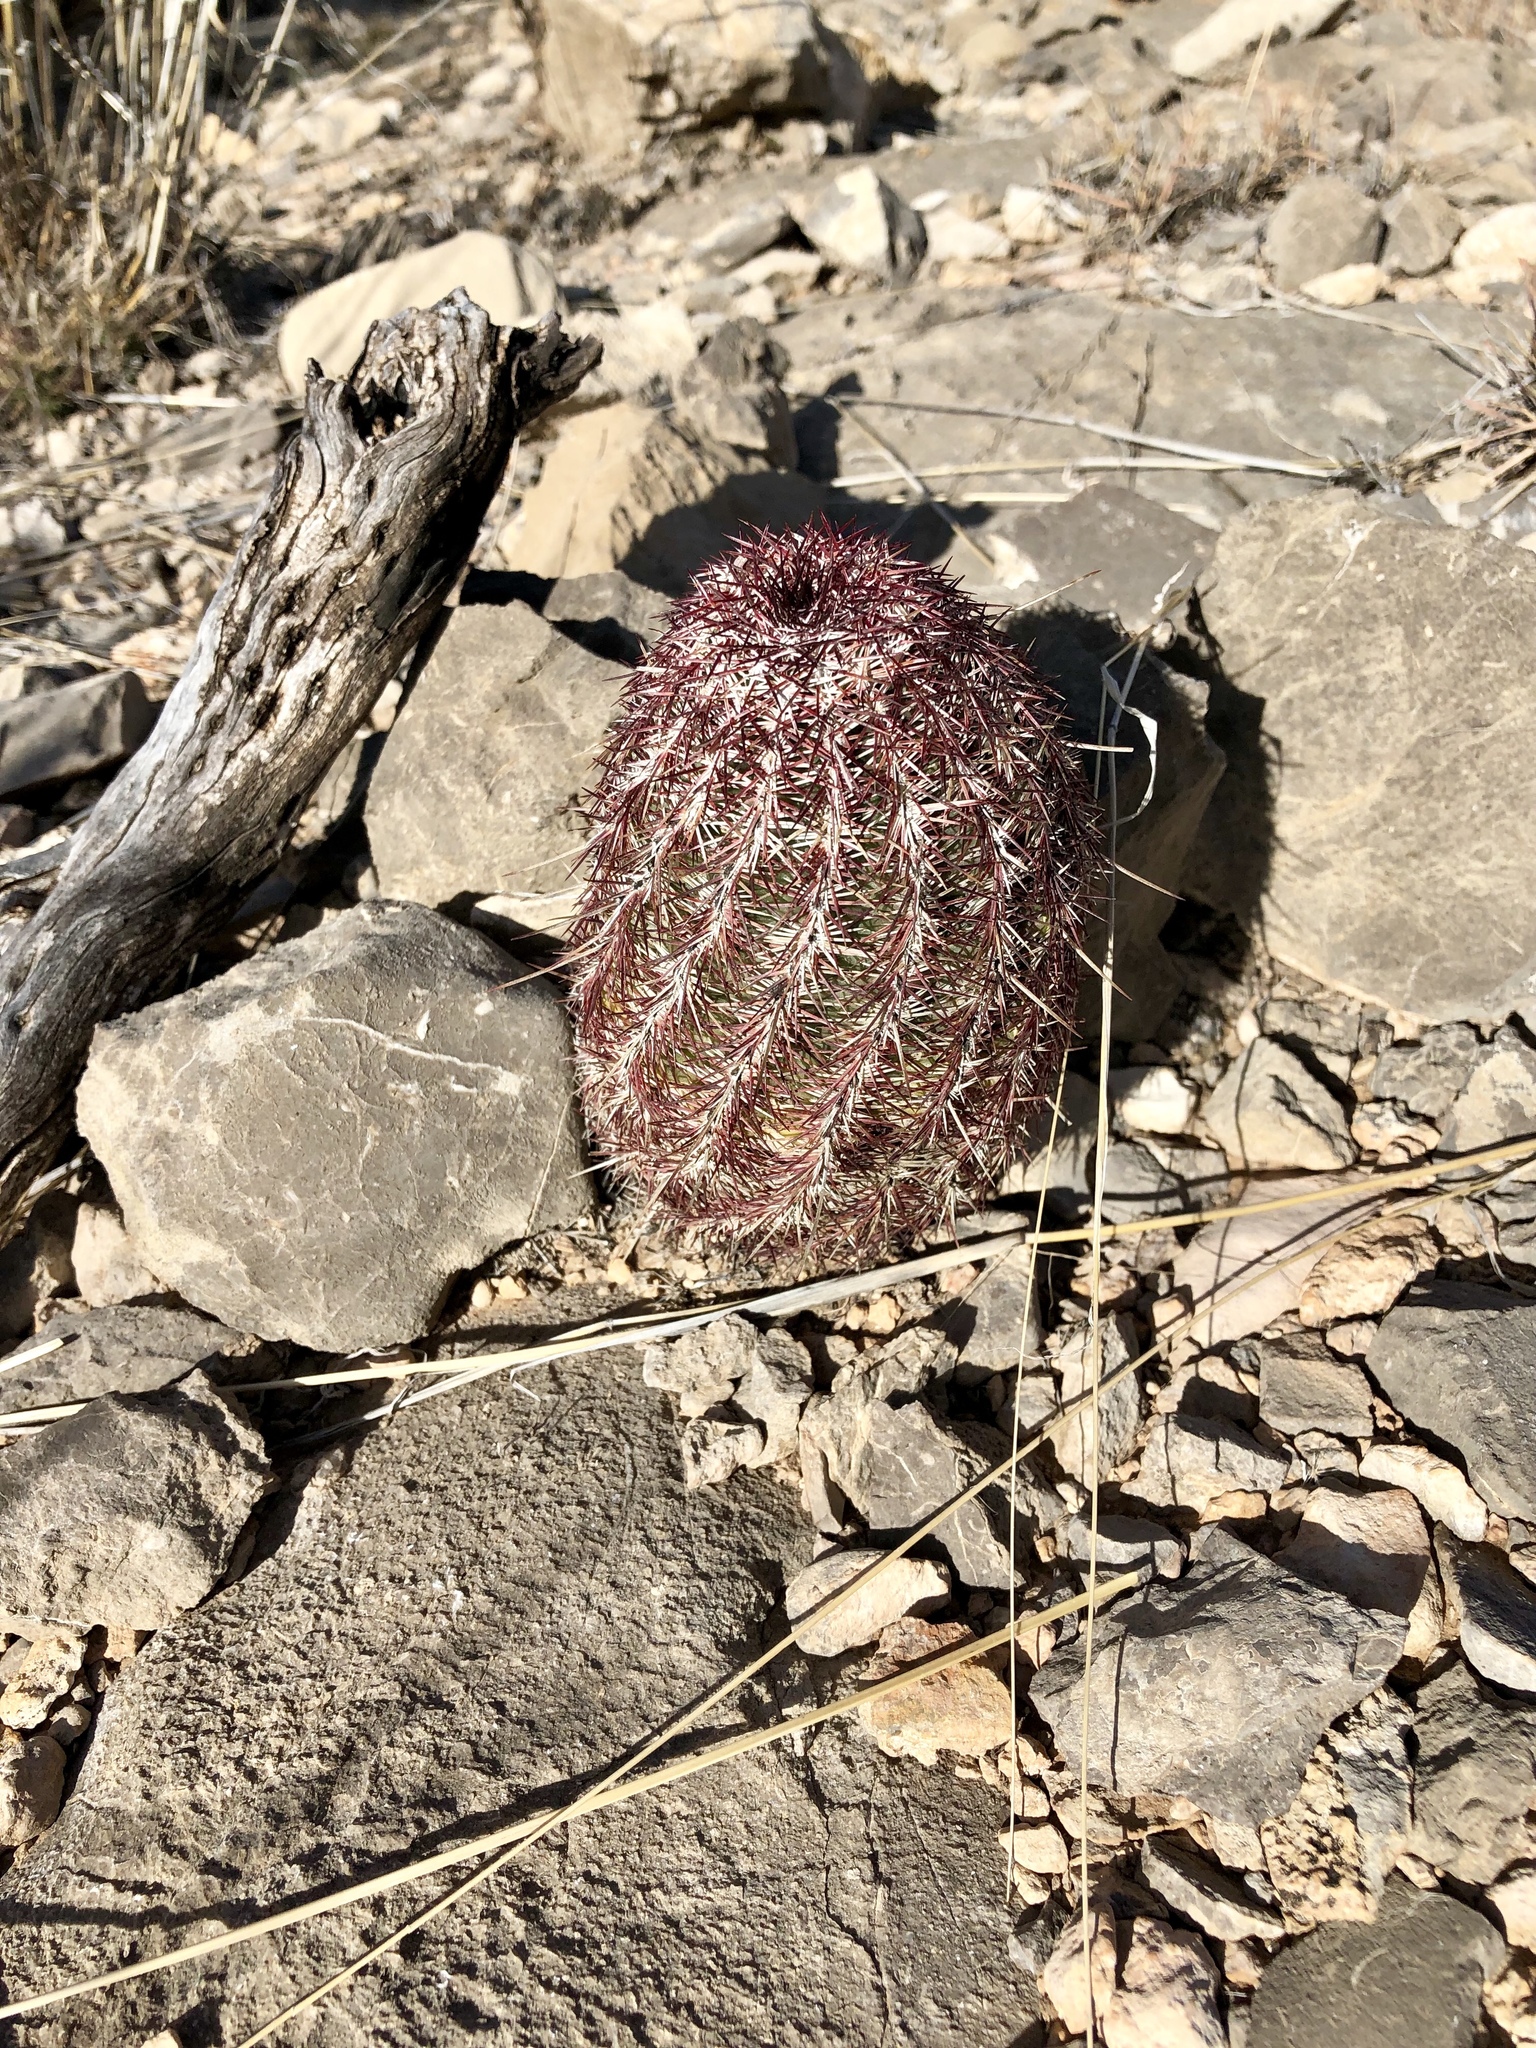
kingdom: Plantae
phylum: Tracheophyta
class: Magnoliopsida
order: Caryophyllales
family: Cactaceae
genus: Echinocereus
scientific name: Echinocereus viridiflorus
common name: Nylon hedgehog cactus
